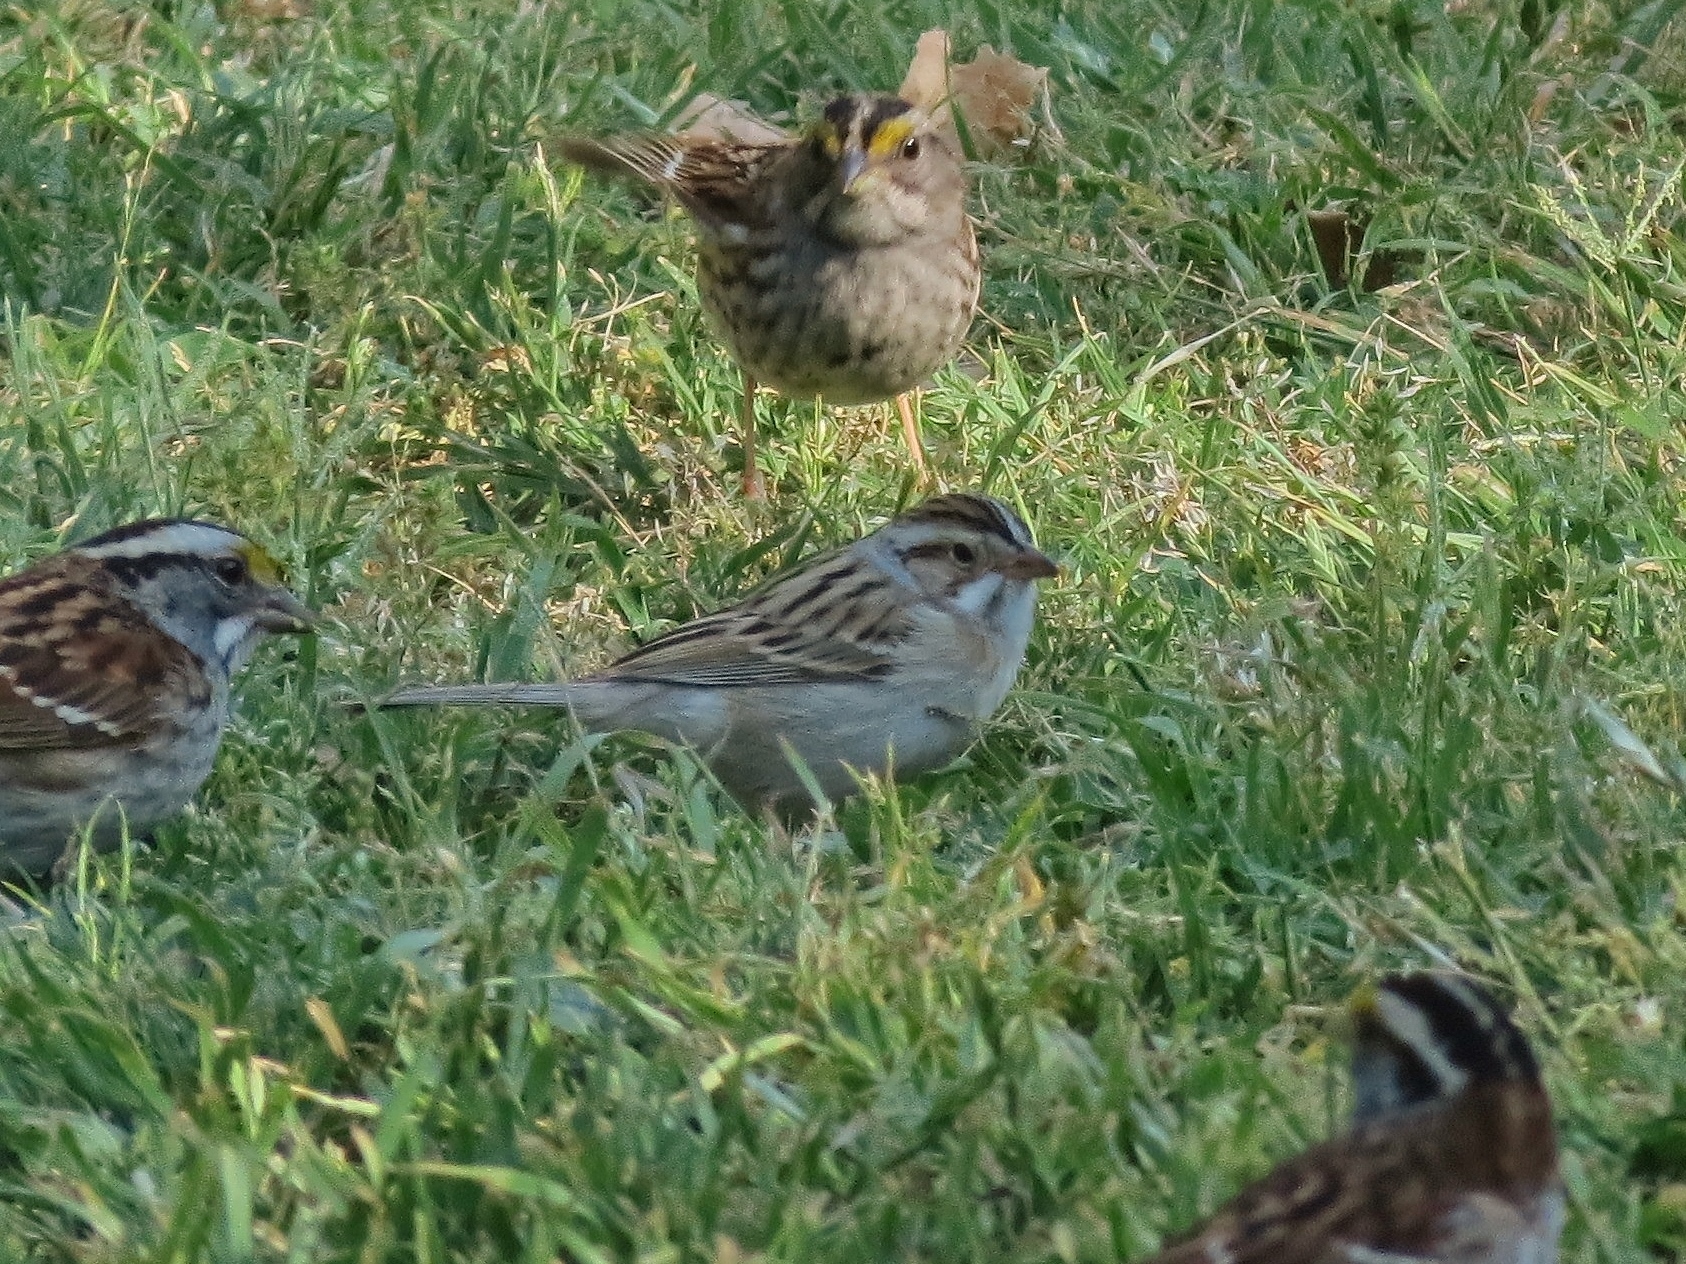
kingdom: Animalia
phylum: Chordata
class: Aves
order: Passeriformes
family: Passerellidae
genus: Spizella
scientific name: Spizella pallida
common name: Clay-colored sparrow
